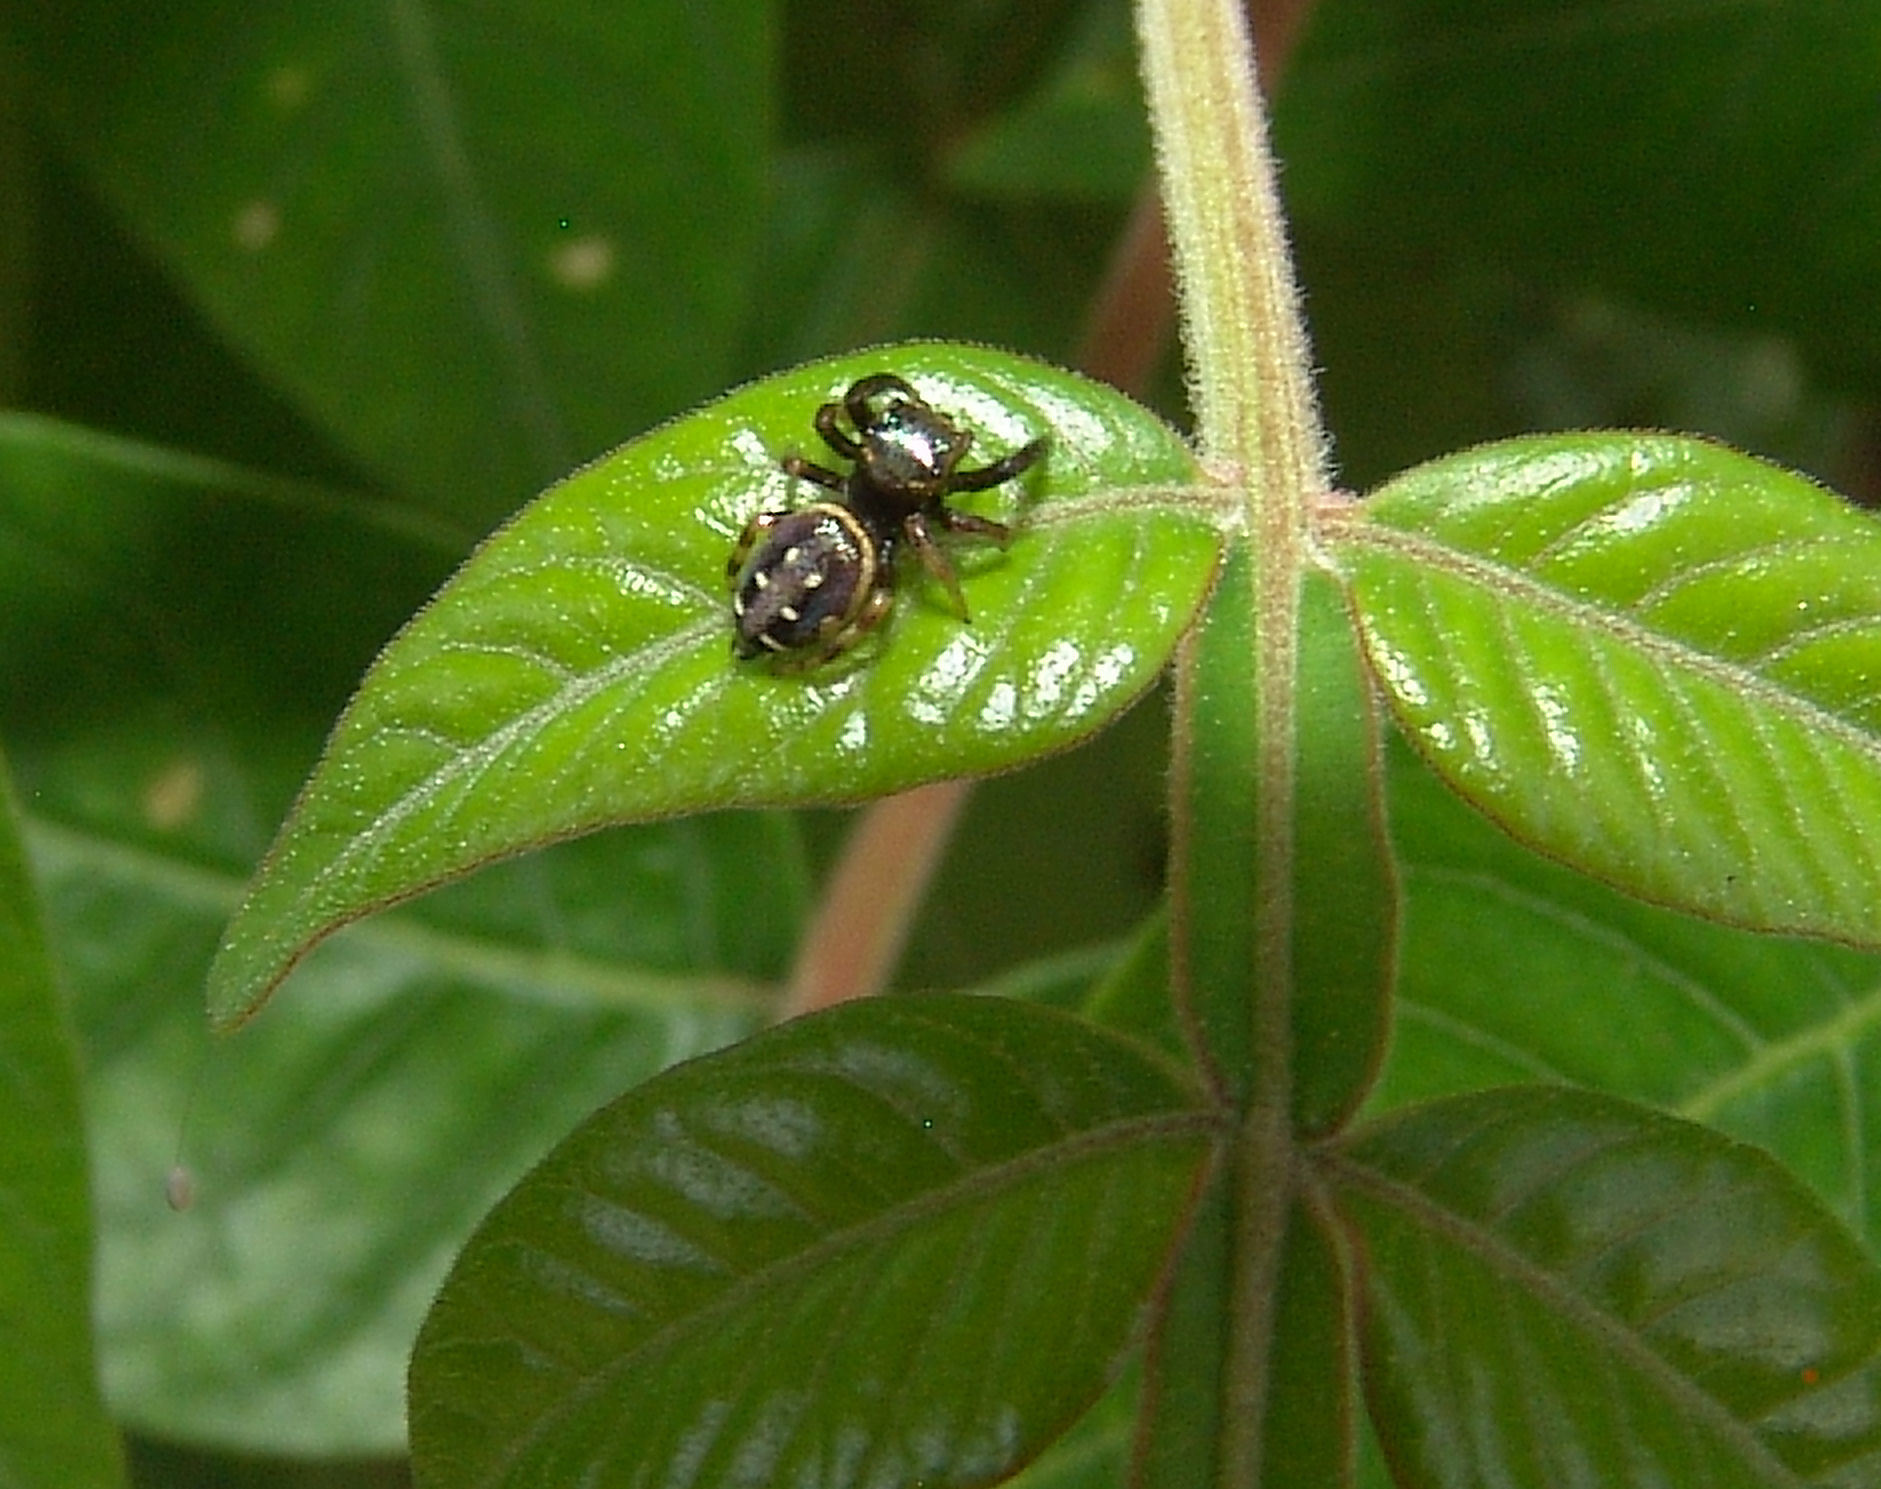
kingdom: Animalia
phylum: Arthropoda
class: Arachnida
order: Araneae
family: Salticidae
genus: Paraphidippus
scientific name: Paraphidippus aurantius
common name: Jumping spiders
